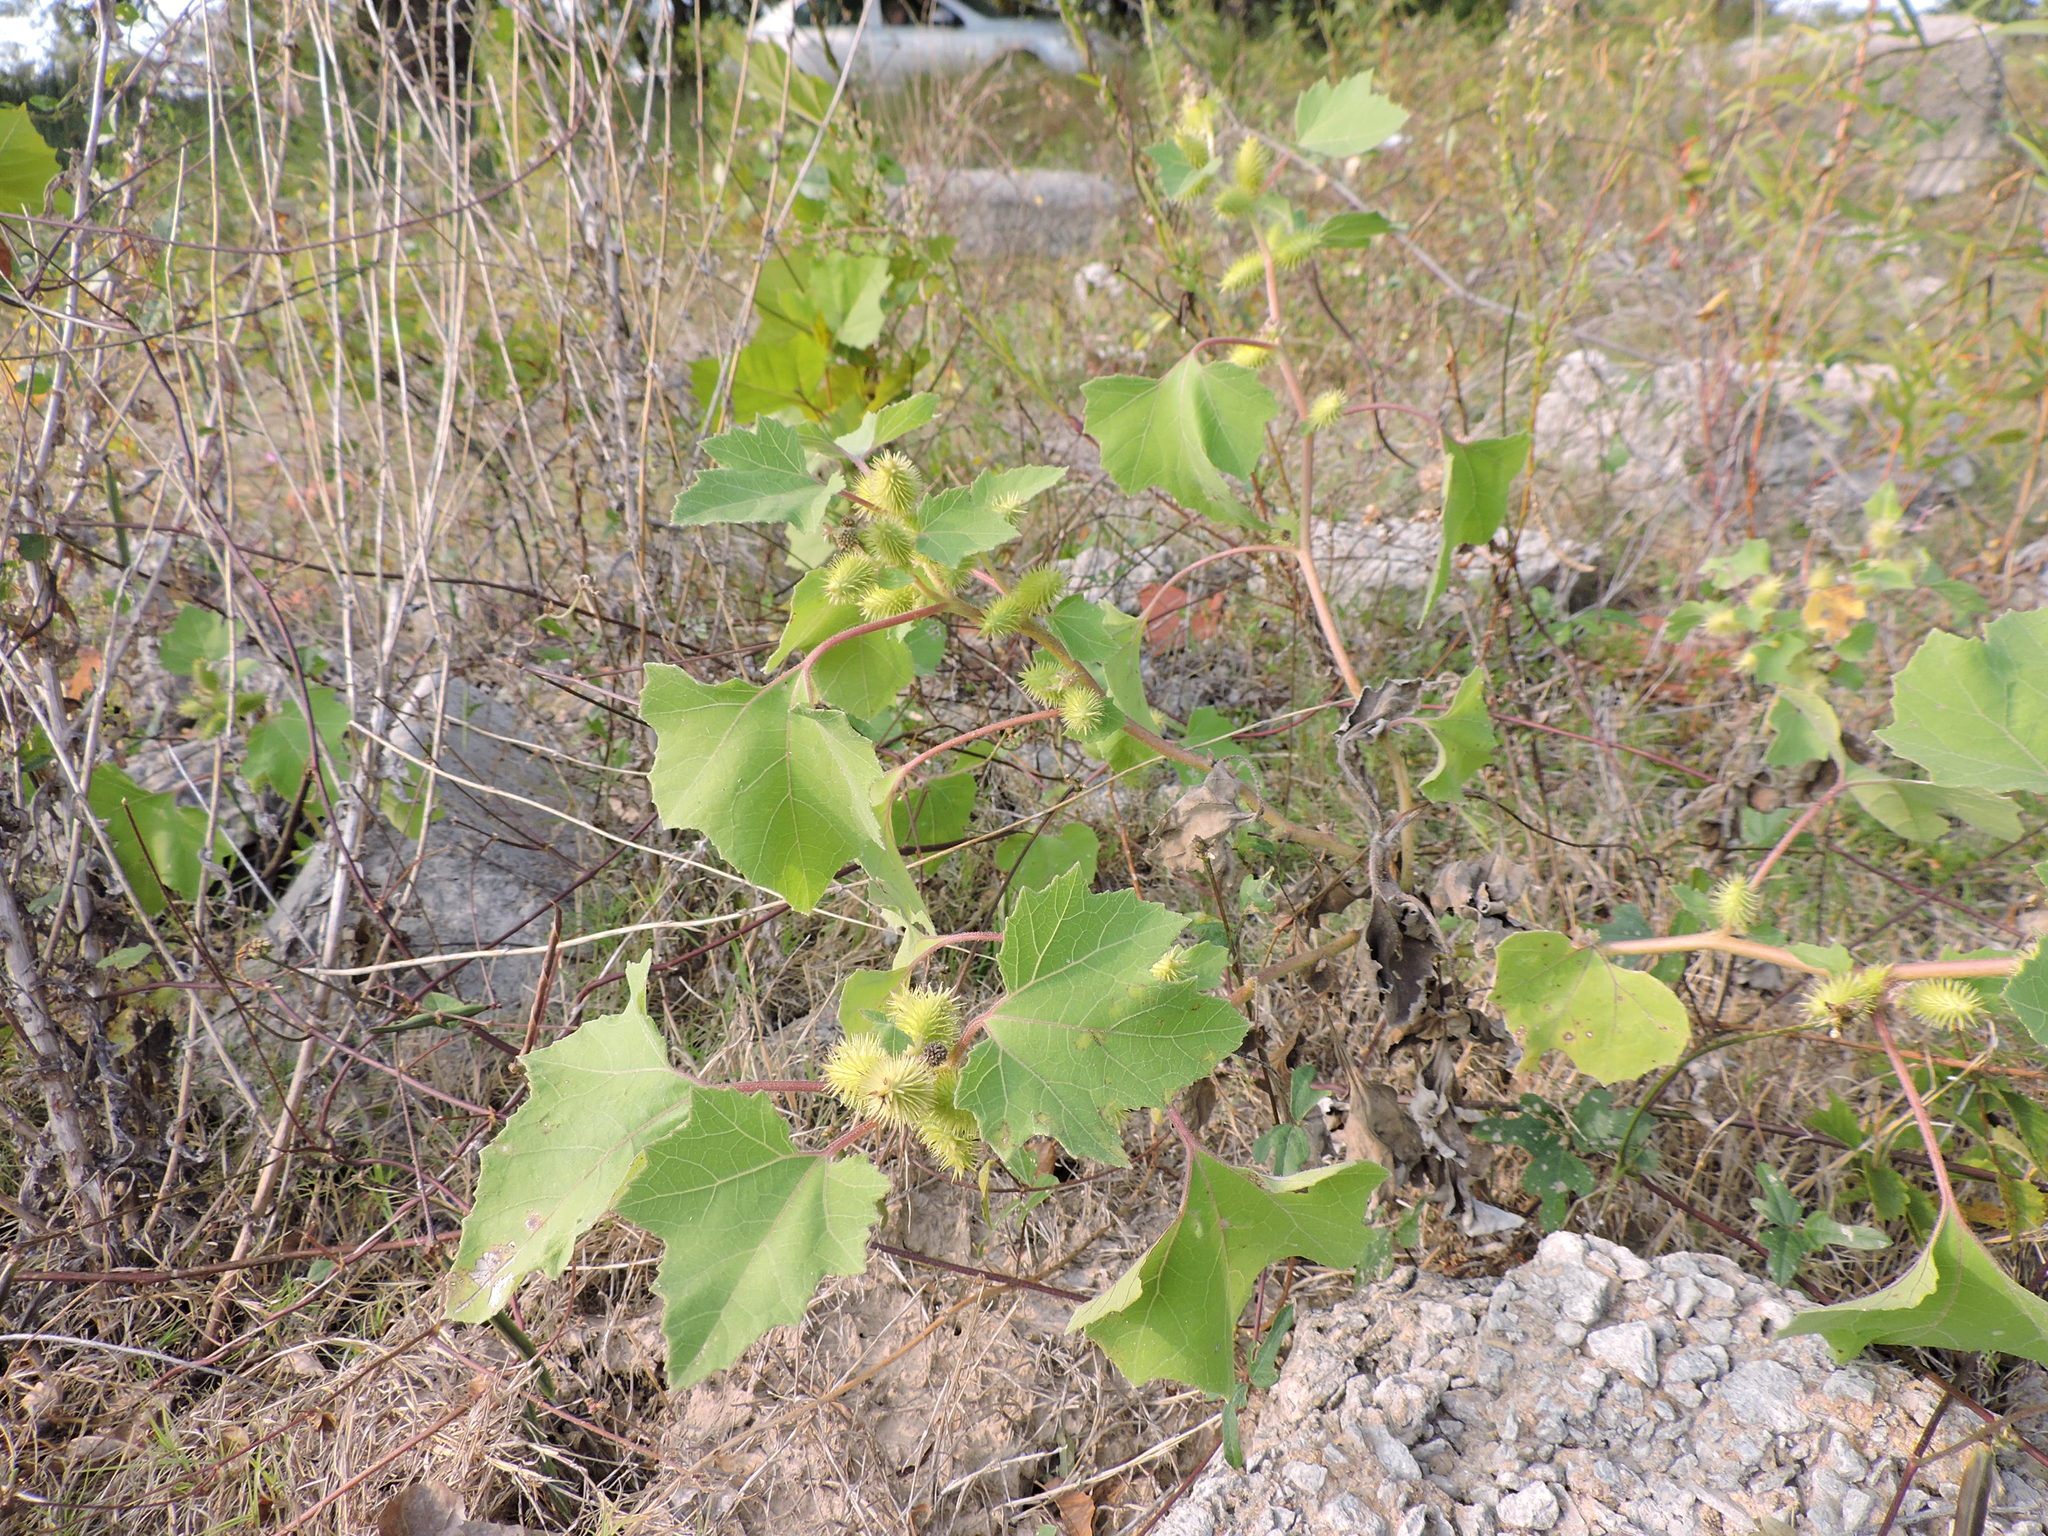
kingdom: Plantae
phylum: Tracheophyta
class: Magnoliopsida
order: Asterales
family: Asteraceae
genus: Xanthium
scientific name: Xanthium strumarium
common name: Rough cocklebur
